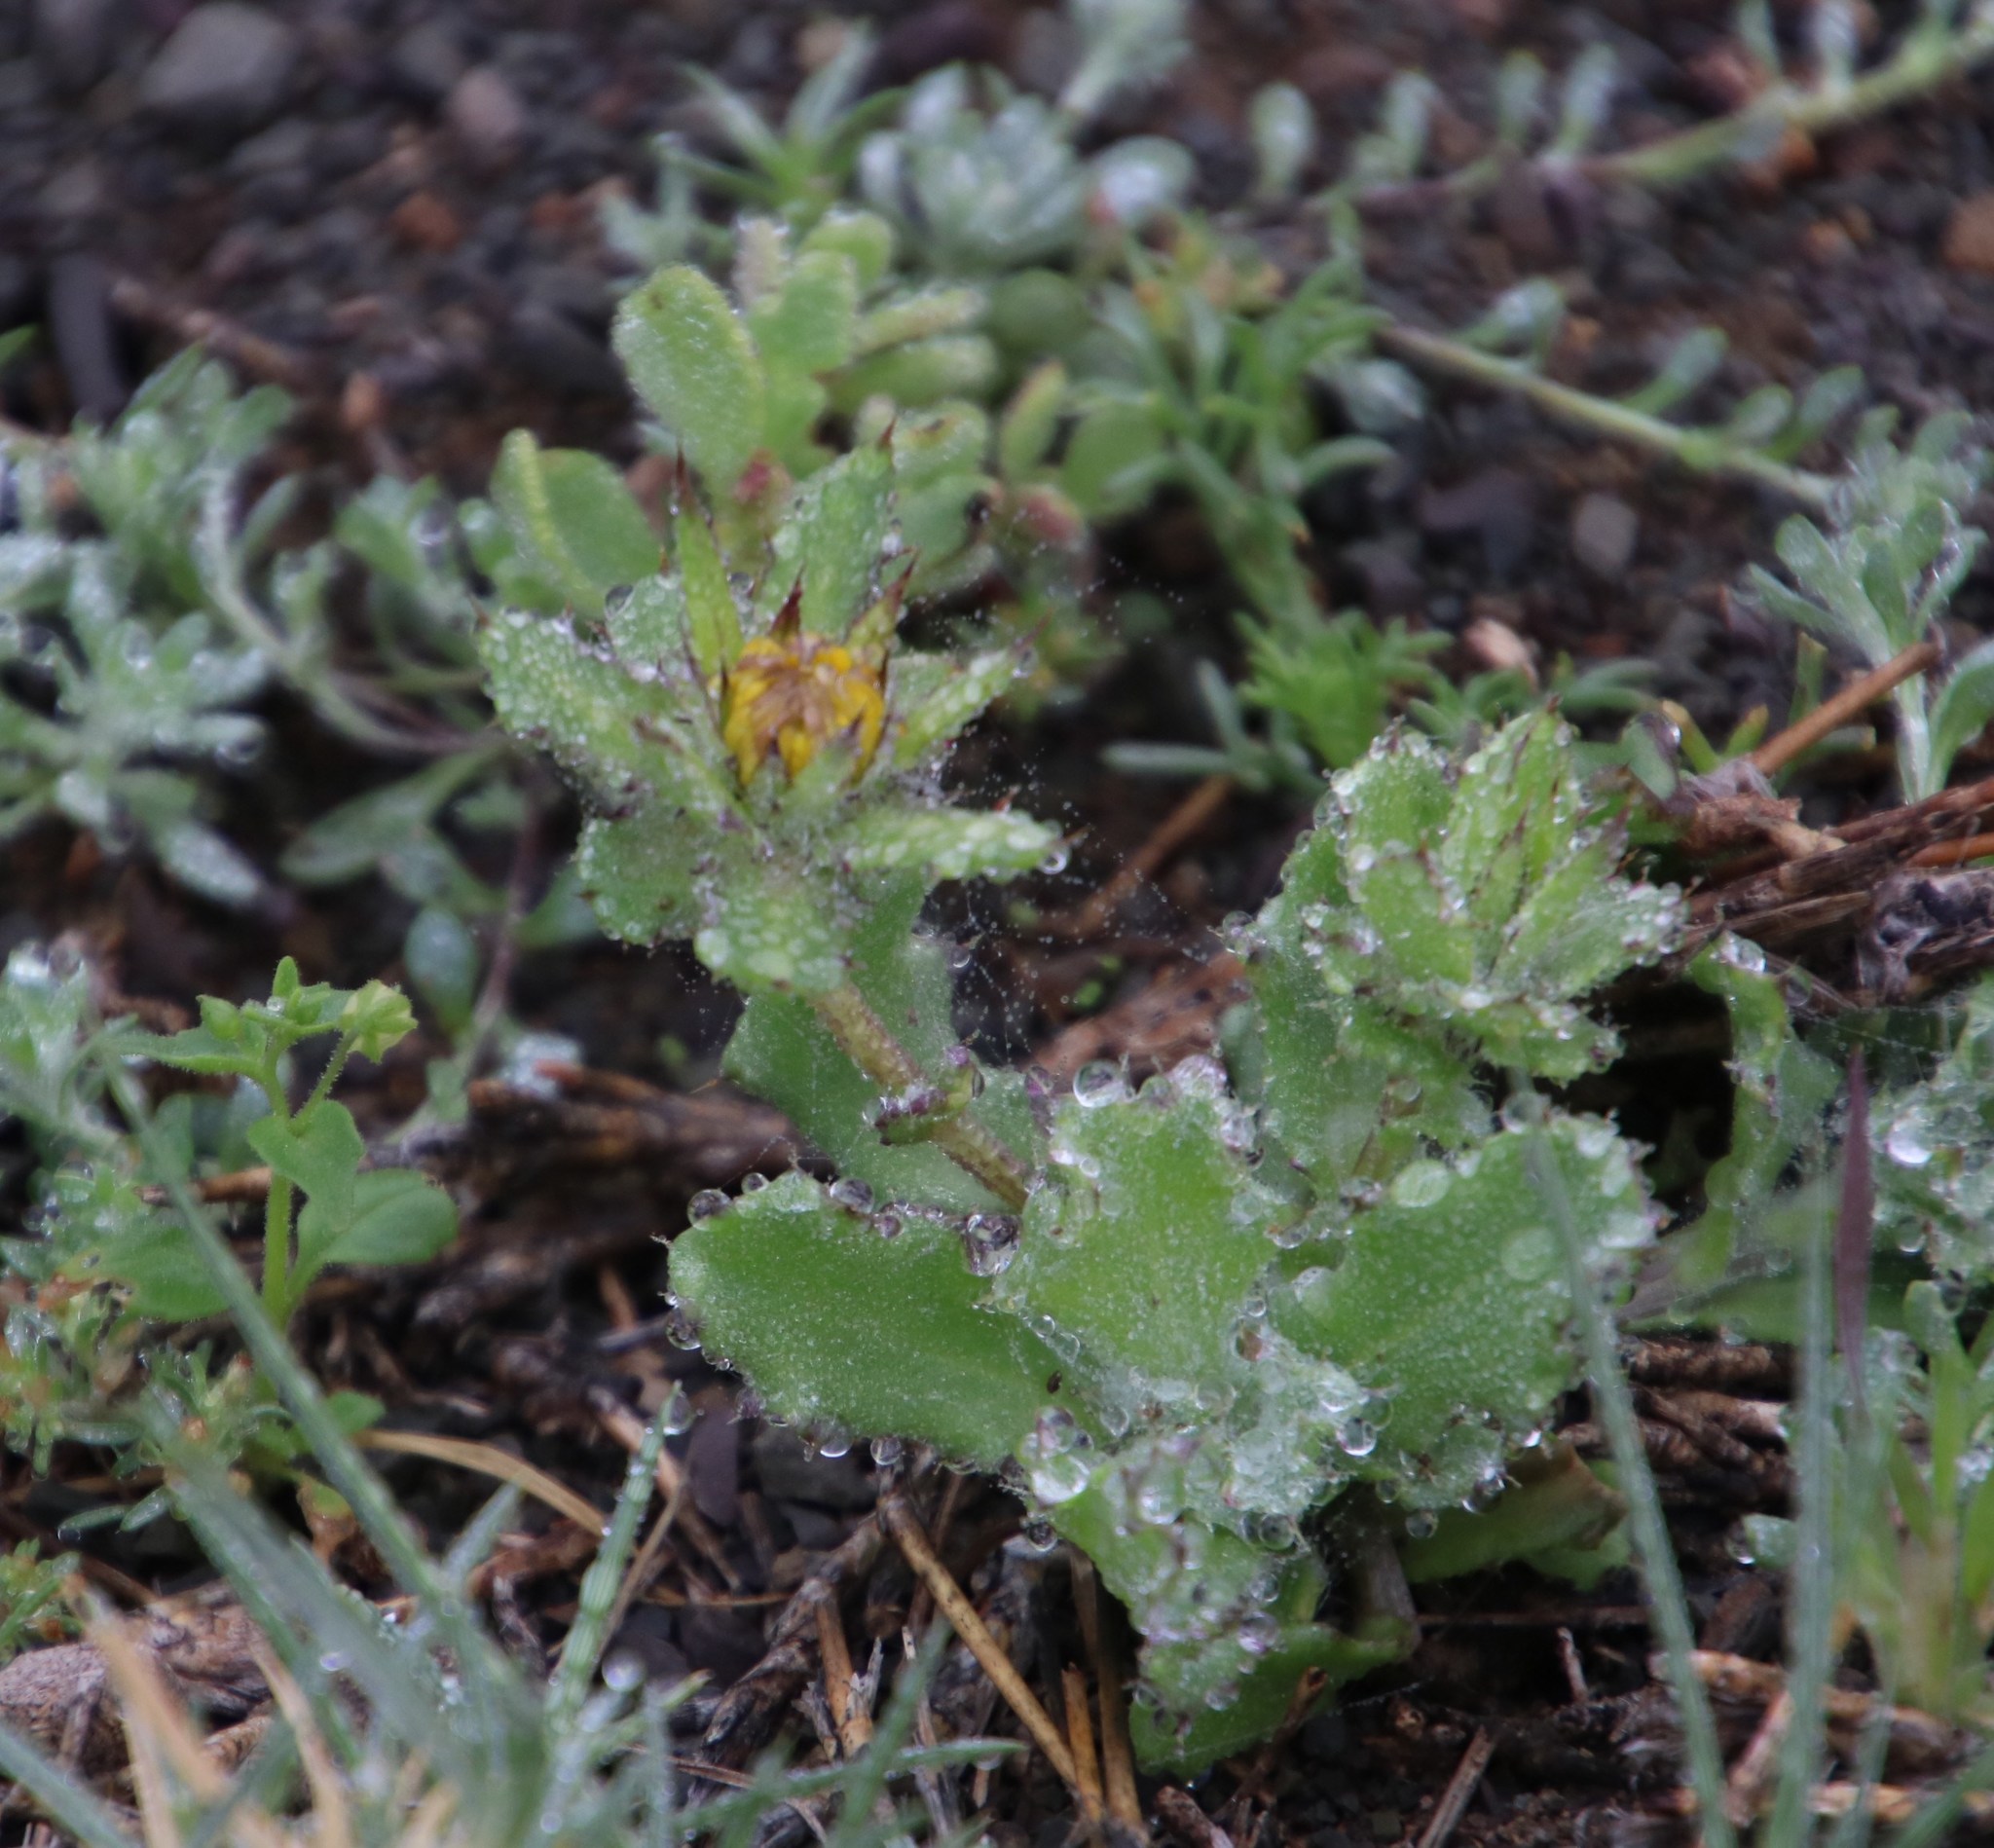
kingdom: Plantae
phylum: Tracheophyta
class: Magnoliopsida
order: Asterales
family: Asteraceae
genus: Cuspidia
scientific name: Cuspidia cernua
